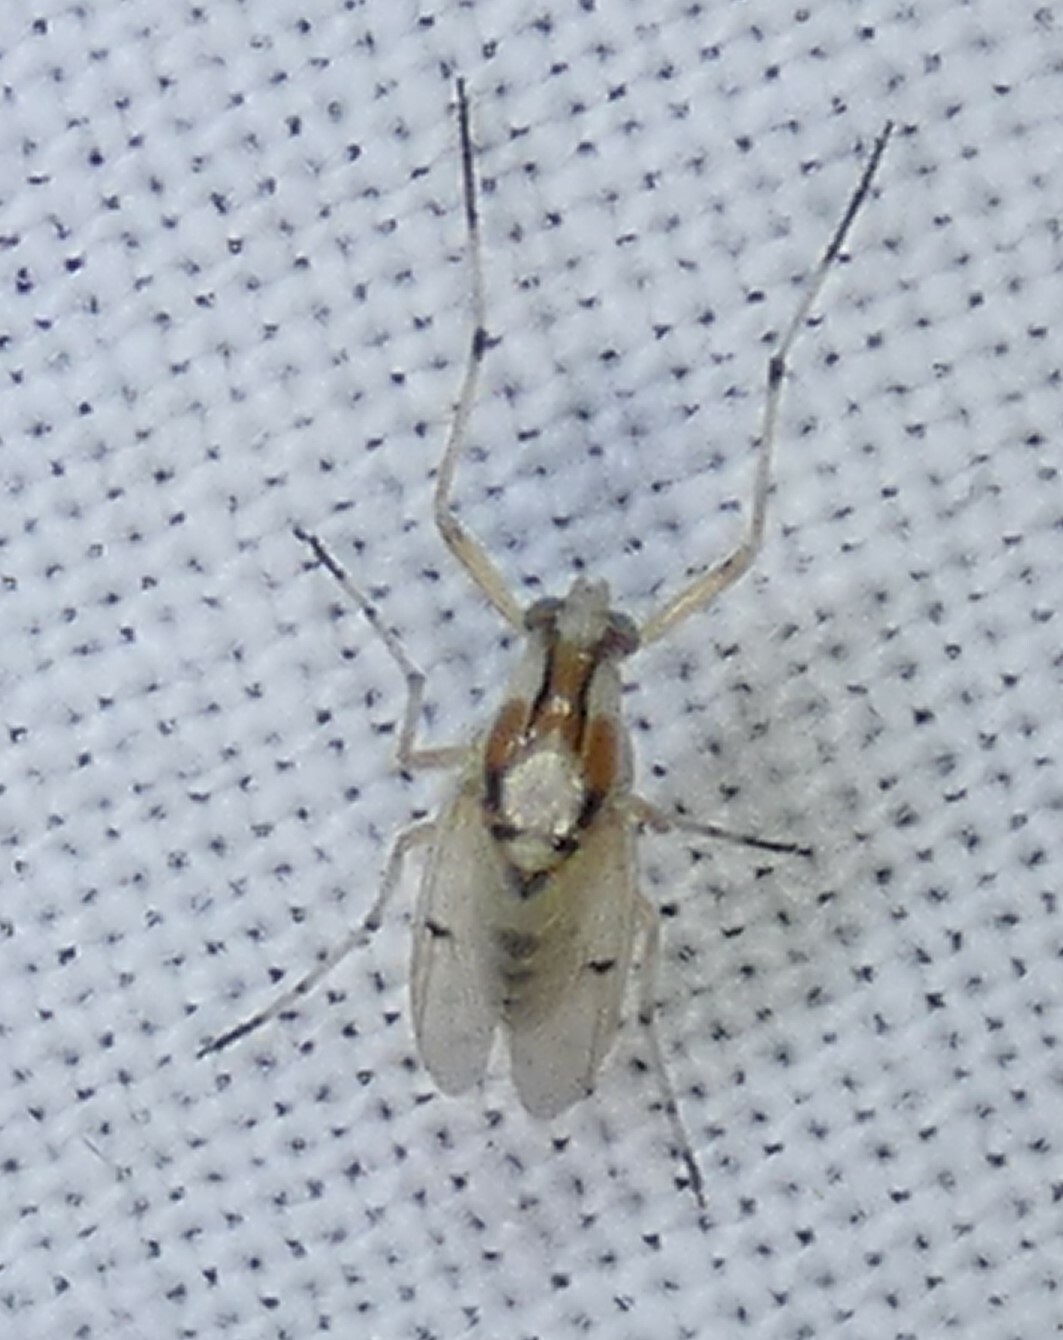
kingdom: Animalia
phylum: Arthropoda
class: Insecta
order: Diptera
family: Chironomidae
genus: Coelotanypus
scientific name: Coelotanypus concinnus
